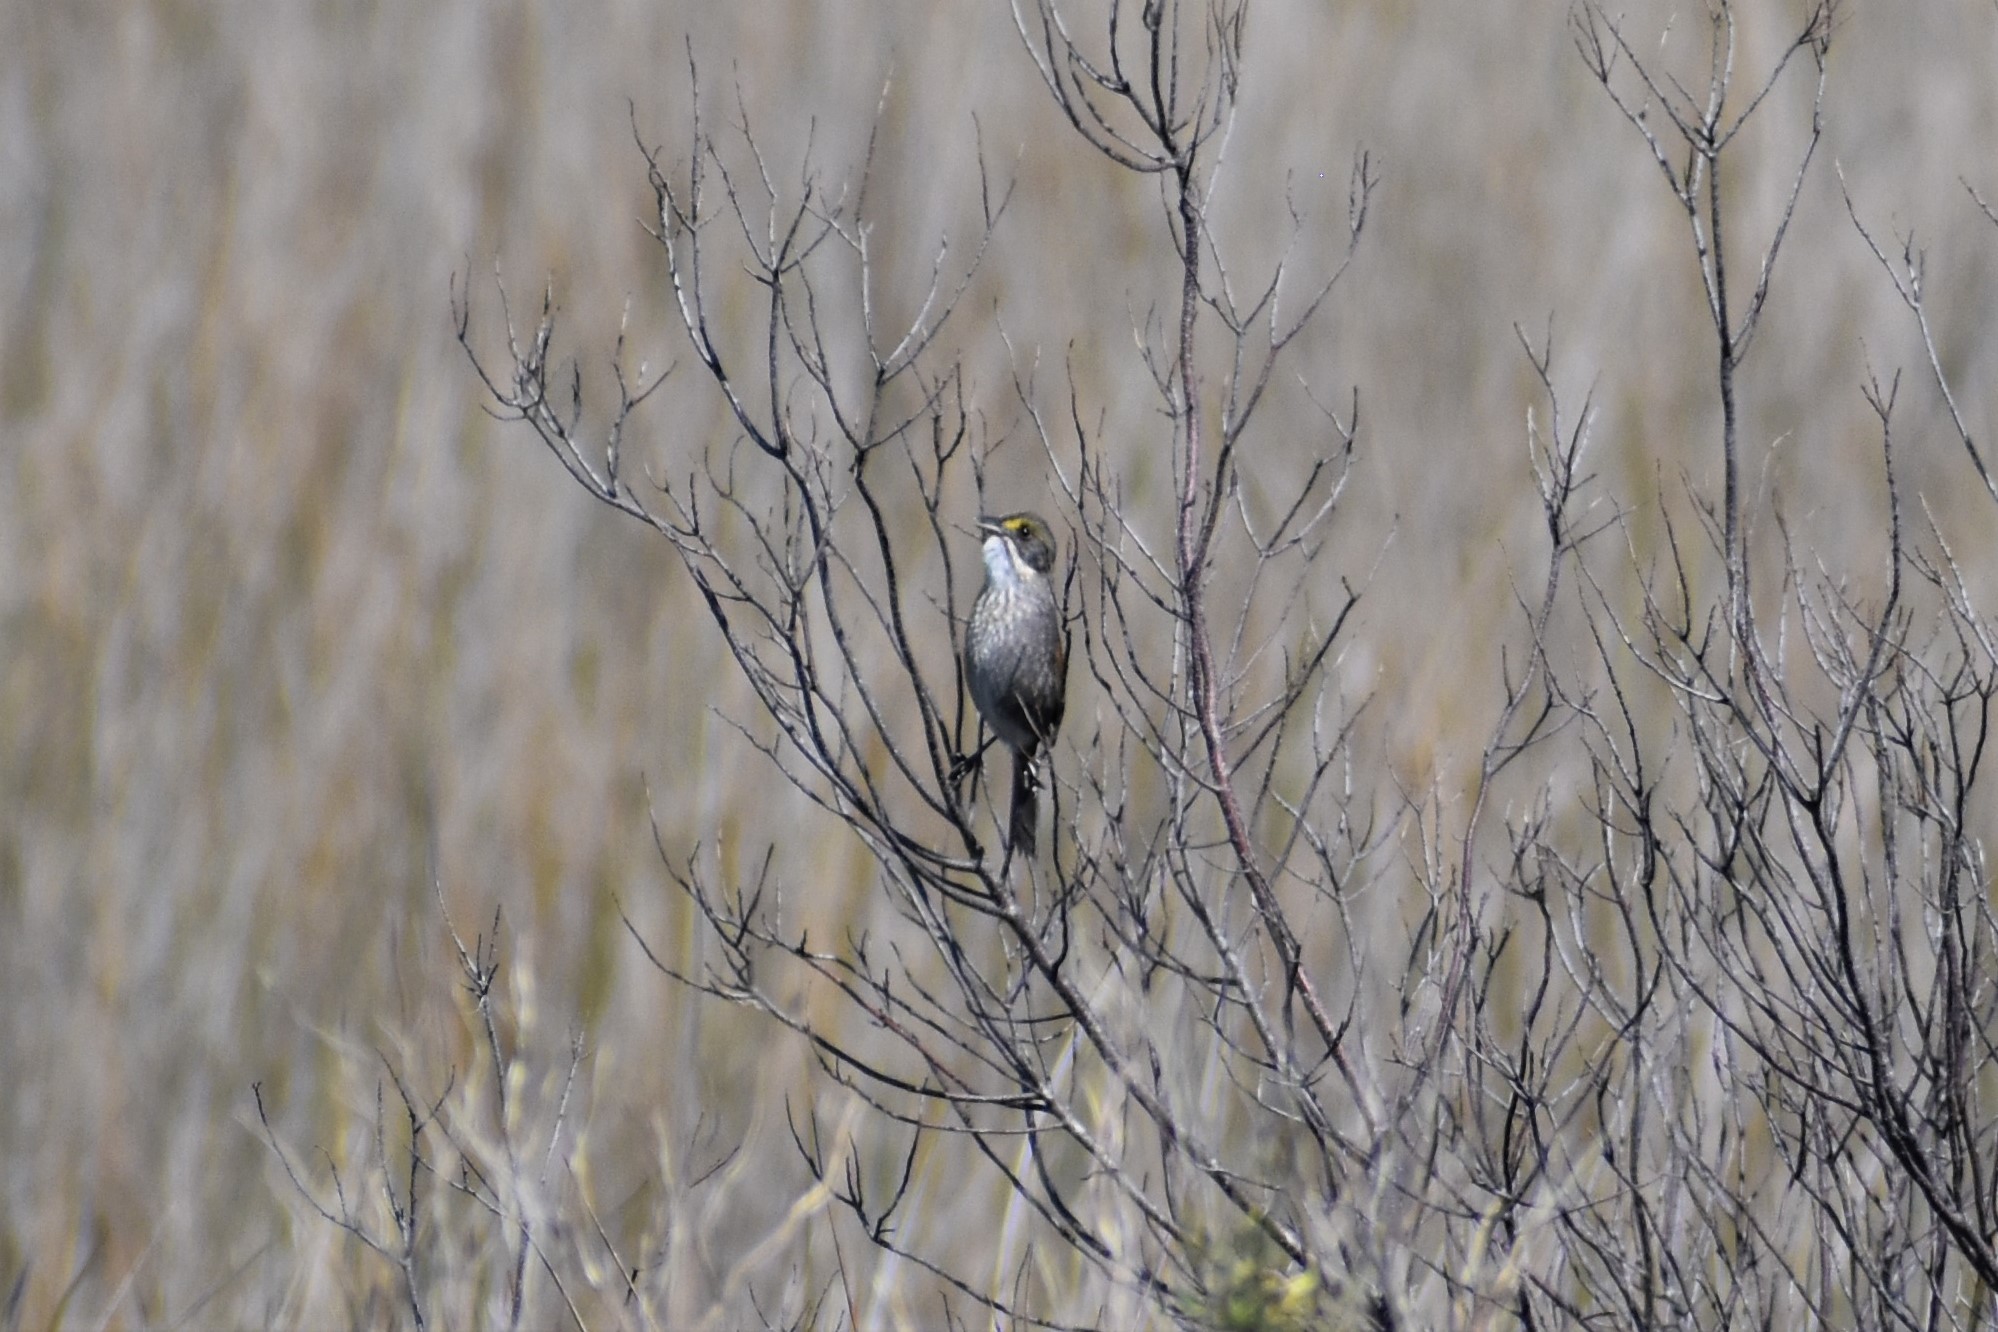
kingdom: Animalia
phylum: Chordata
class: Aves
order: Passeriformes
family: Passerellidae
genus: Ammospiza
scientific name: Ammospiza maritima
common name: Seaside sparrow
